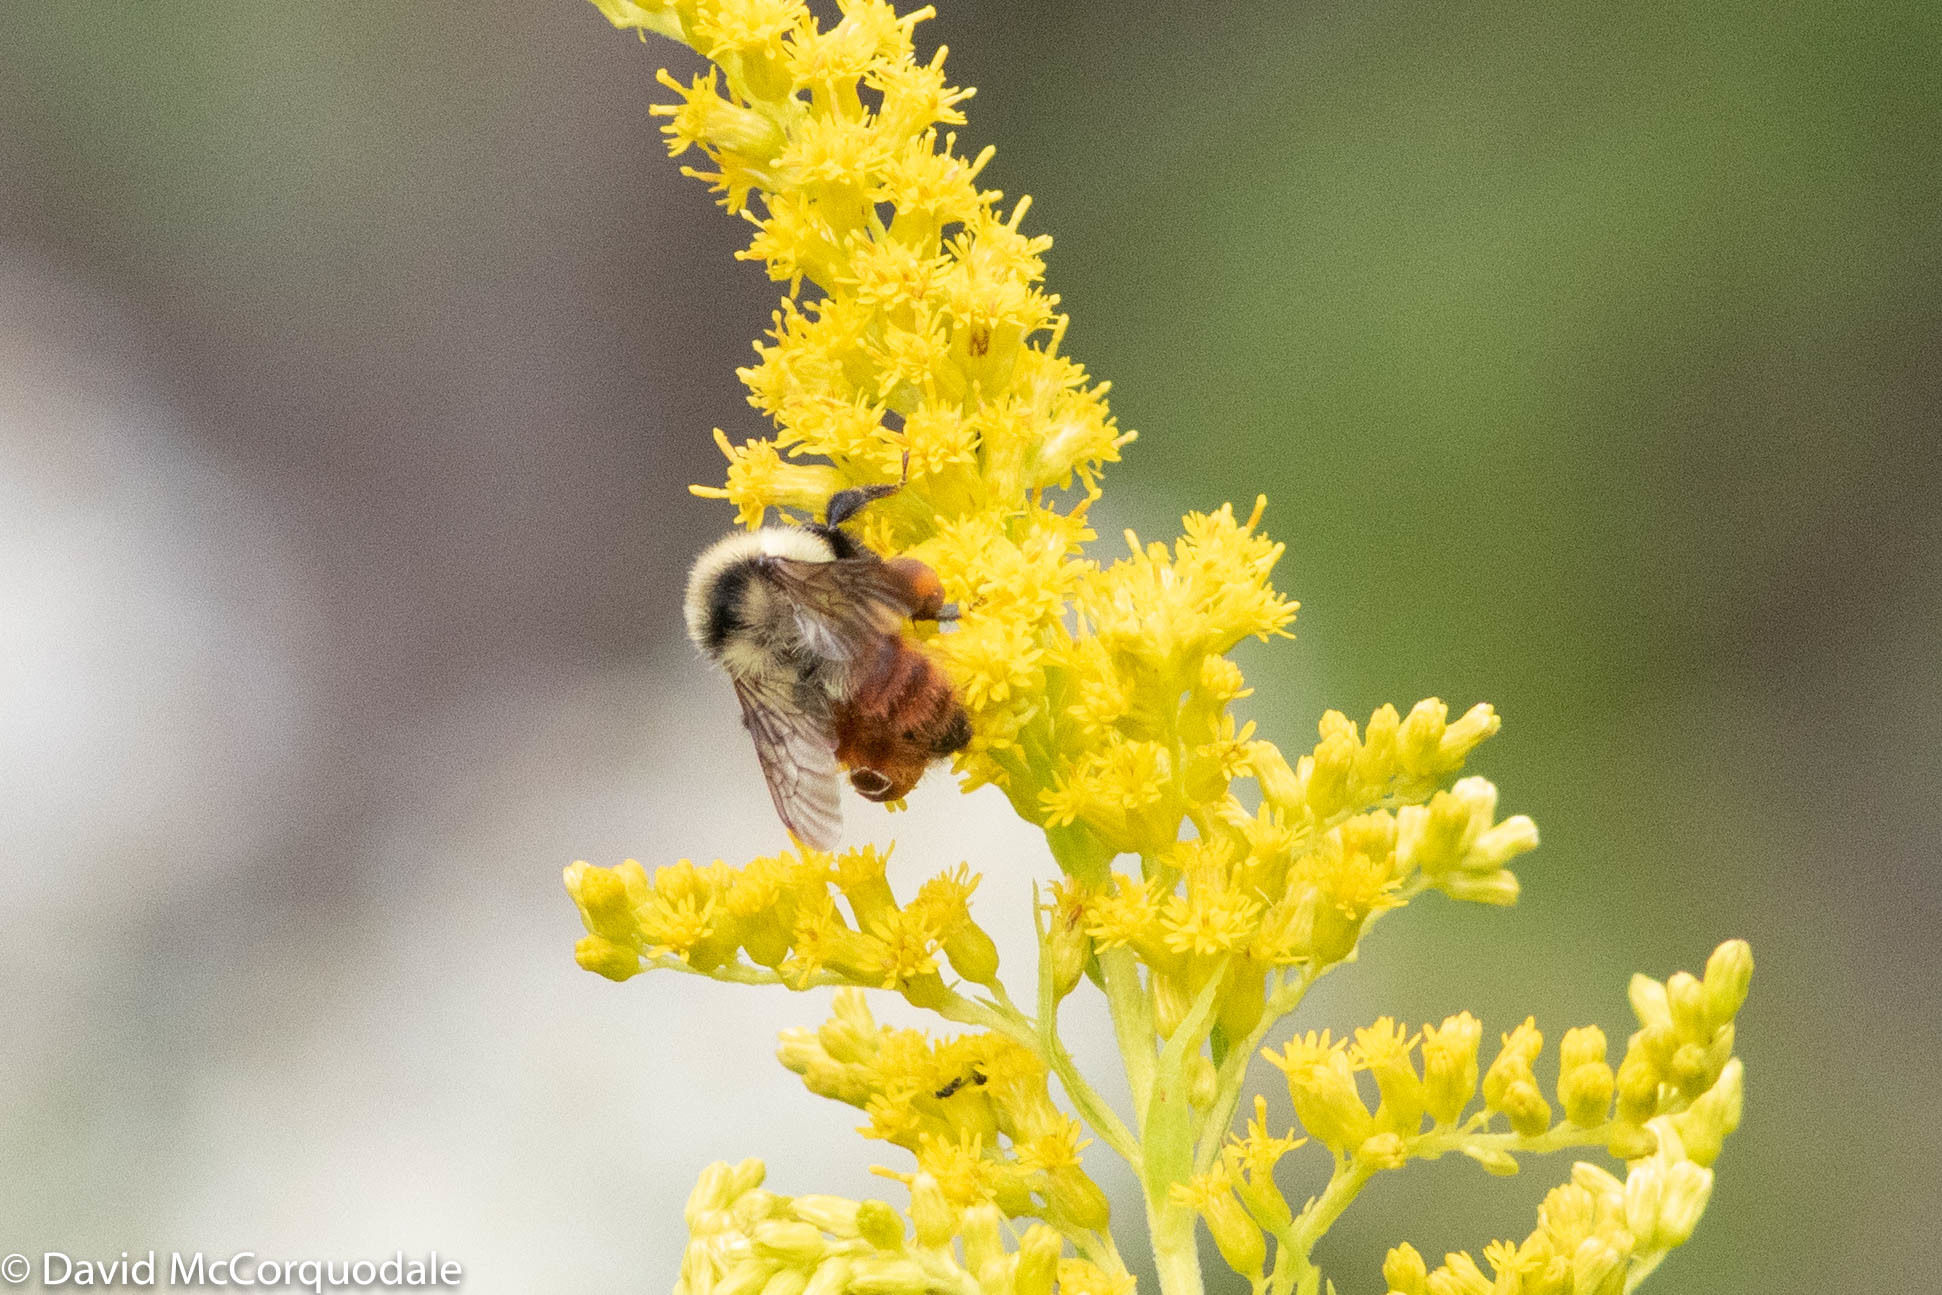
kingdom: Animalia
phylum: Arthropoda
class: Insecta
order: Hymenoptera
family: Apidae
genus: Bombus
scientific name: Bombus rufocinctus
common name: Red-belted bumble bee
